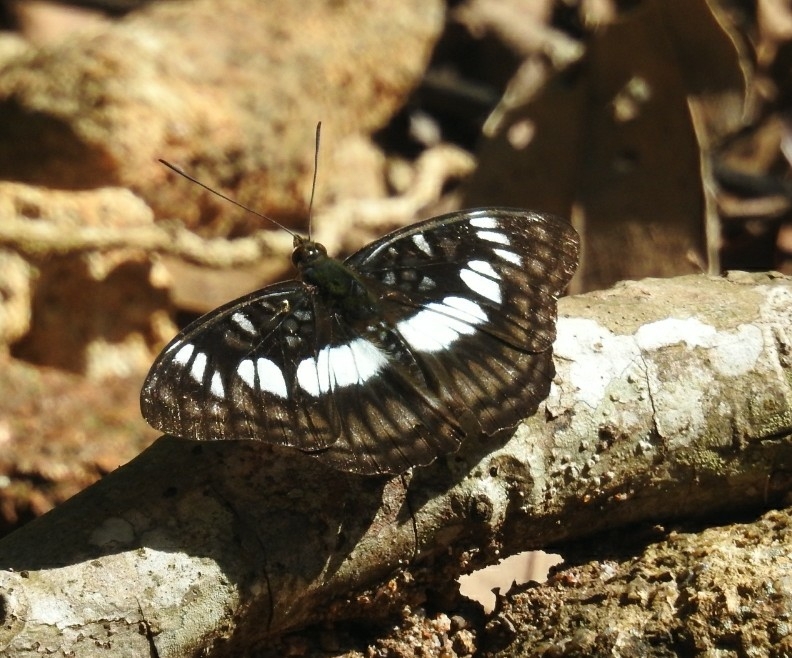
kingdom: Animalia
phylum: Arthropoda
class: Insecta
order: Lepidoptera
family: Nymphalidae
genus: Parathyma
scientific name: Parathyma ranga
